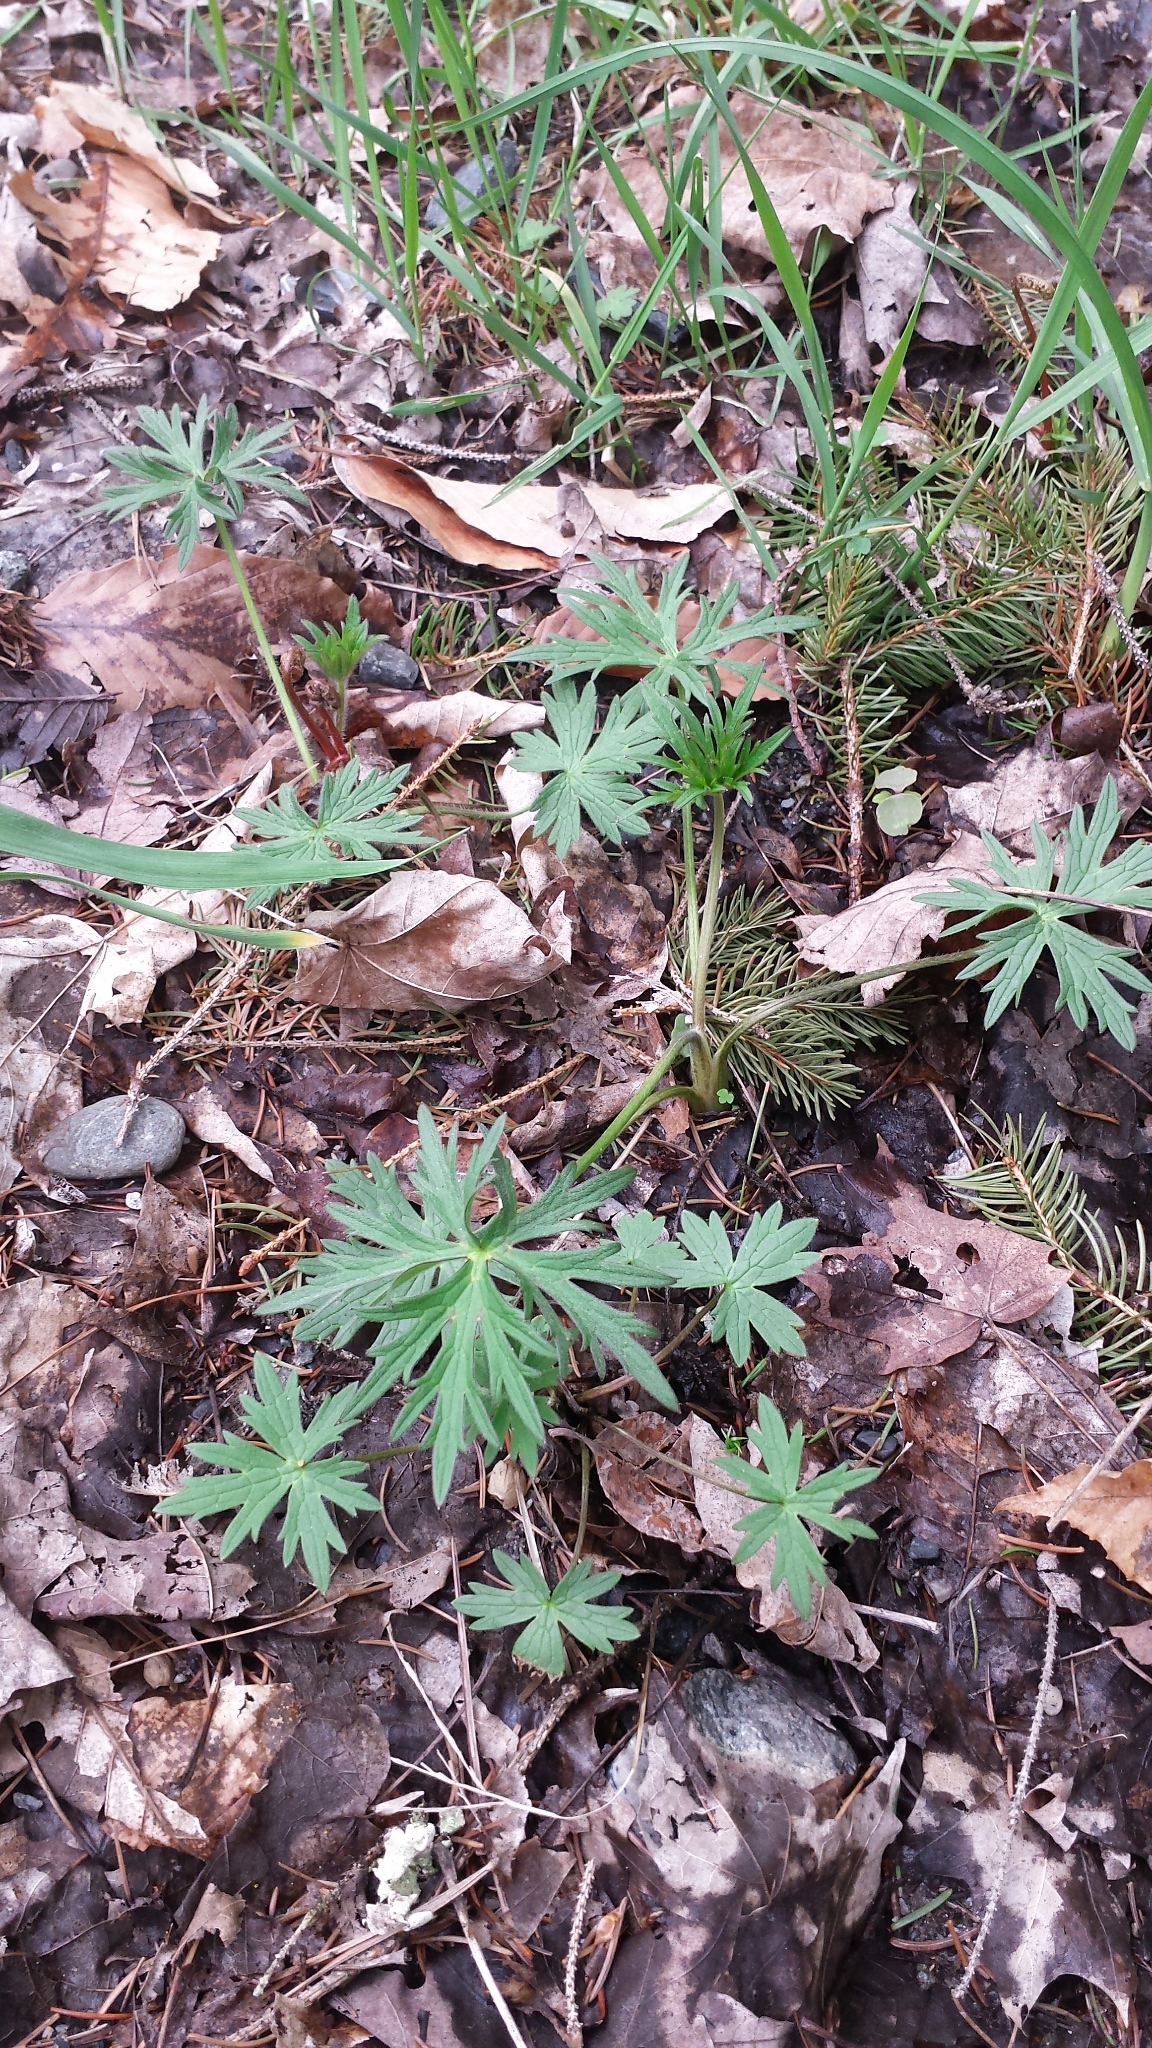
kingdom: Plantae
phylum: Tracheophyta
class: Magnoliopsida
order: Ranunculales
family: Ranunculaceae
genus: Ranunculus
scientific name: Ranunculus acris
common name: Meadow buttercup
